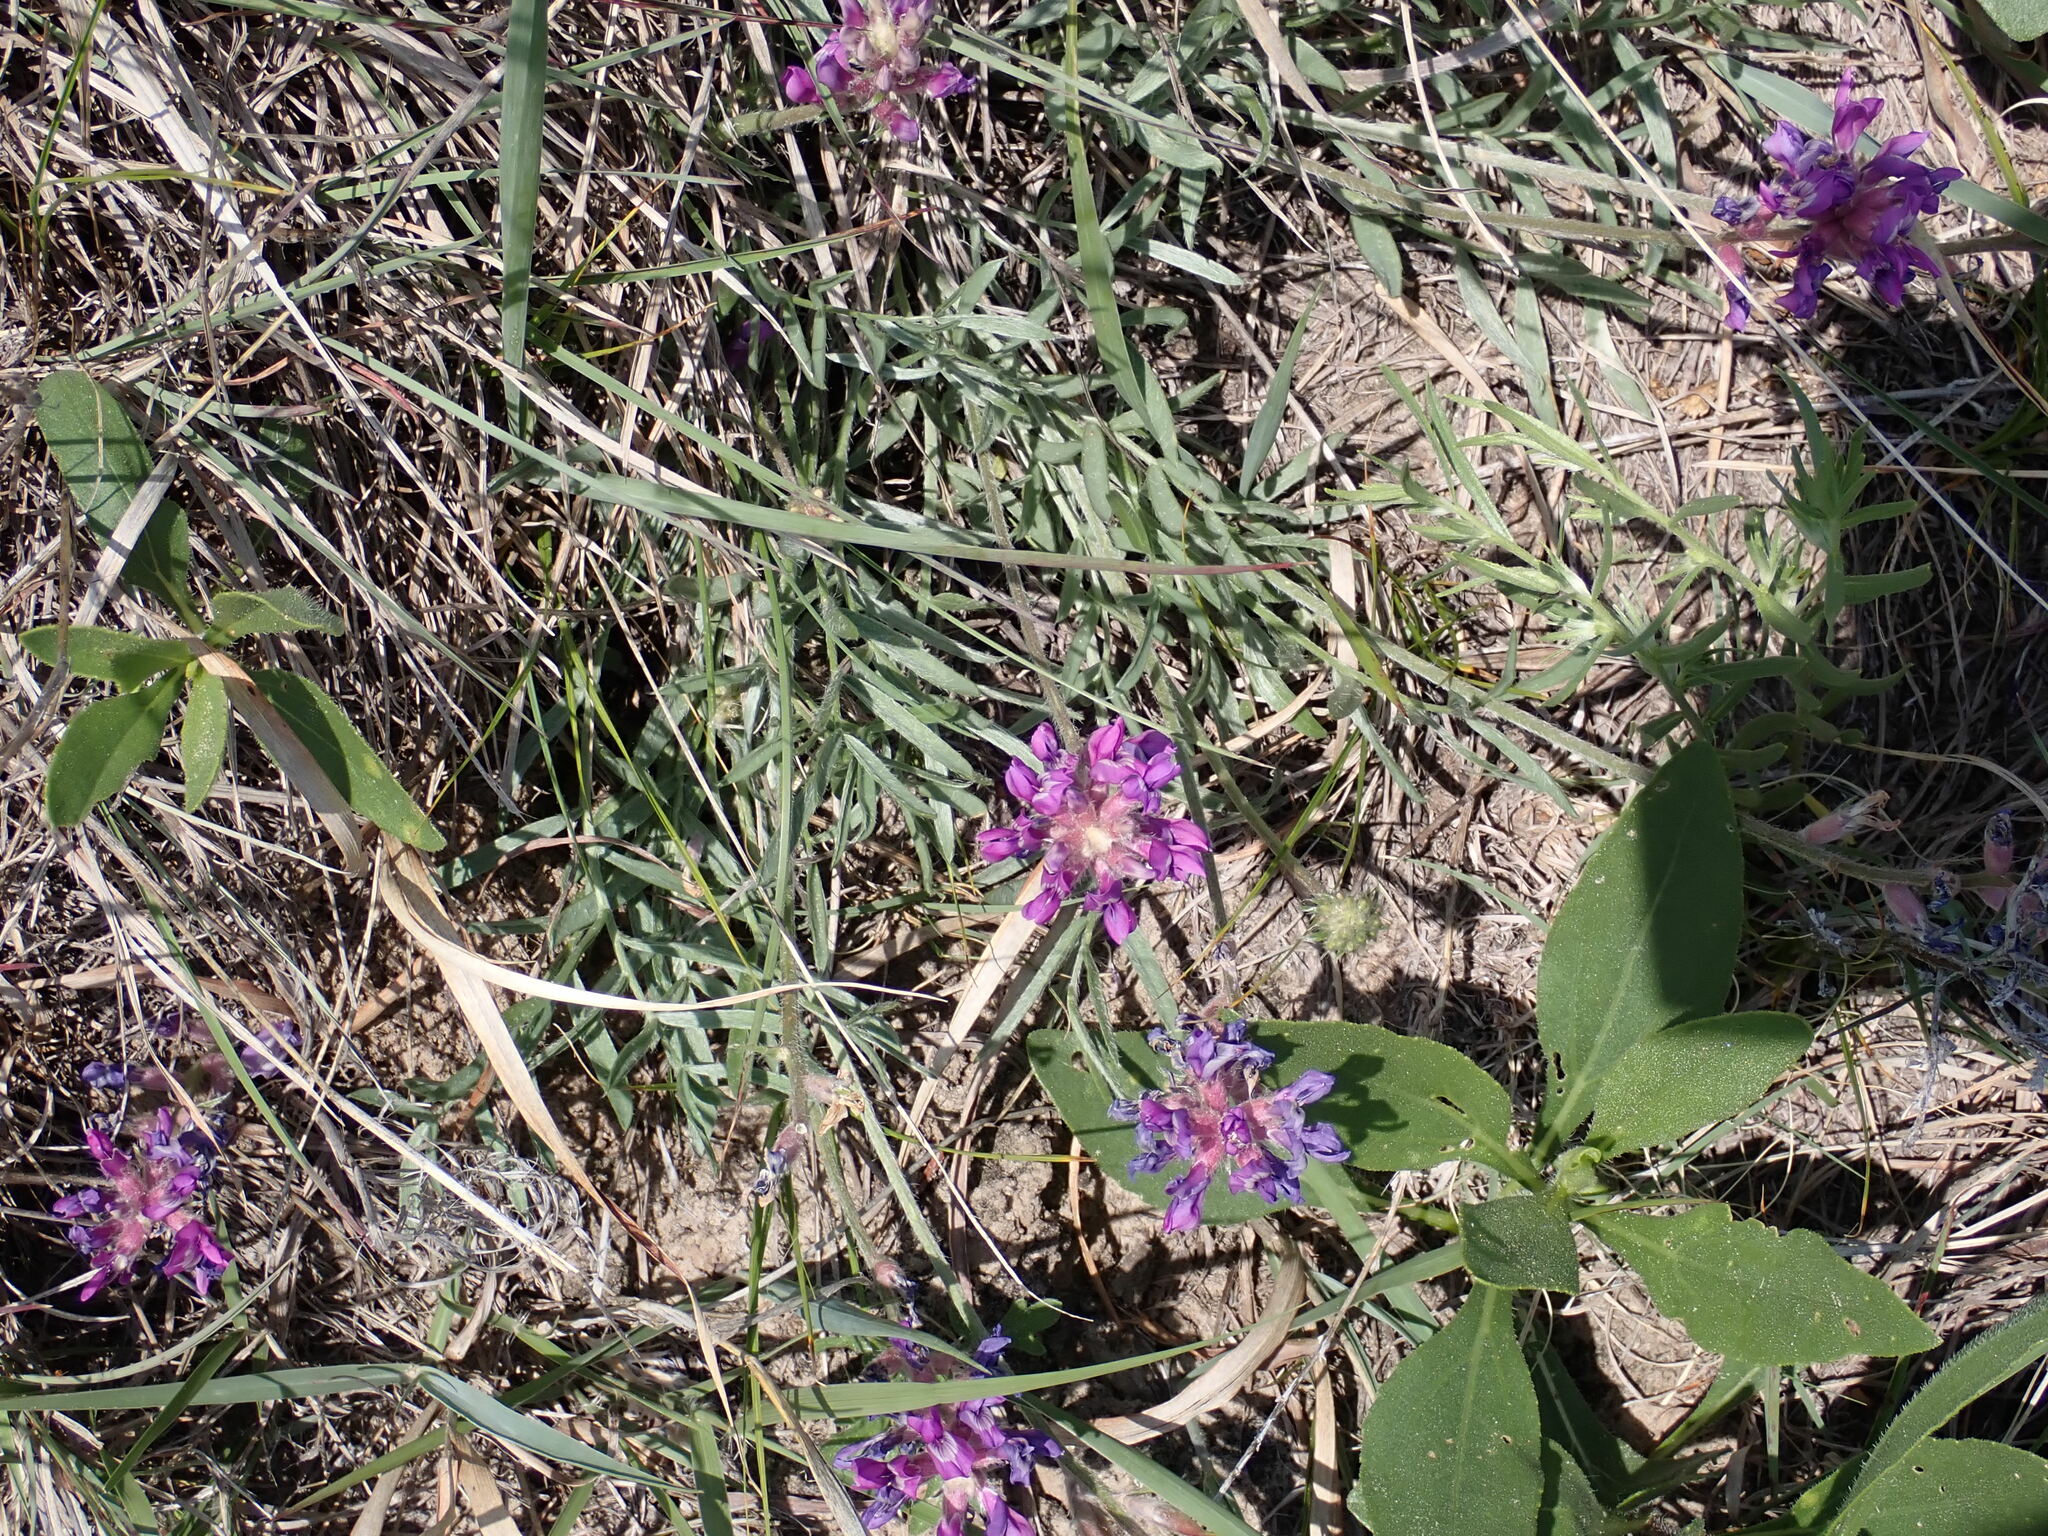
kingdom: Plantae
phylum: Tracheophyta
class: Magnoliopsida
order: Fabales
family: Fabaceae
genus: Oxytropis
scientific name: Oxytropis lambertii
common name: Purple locoweed
